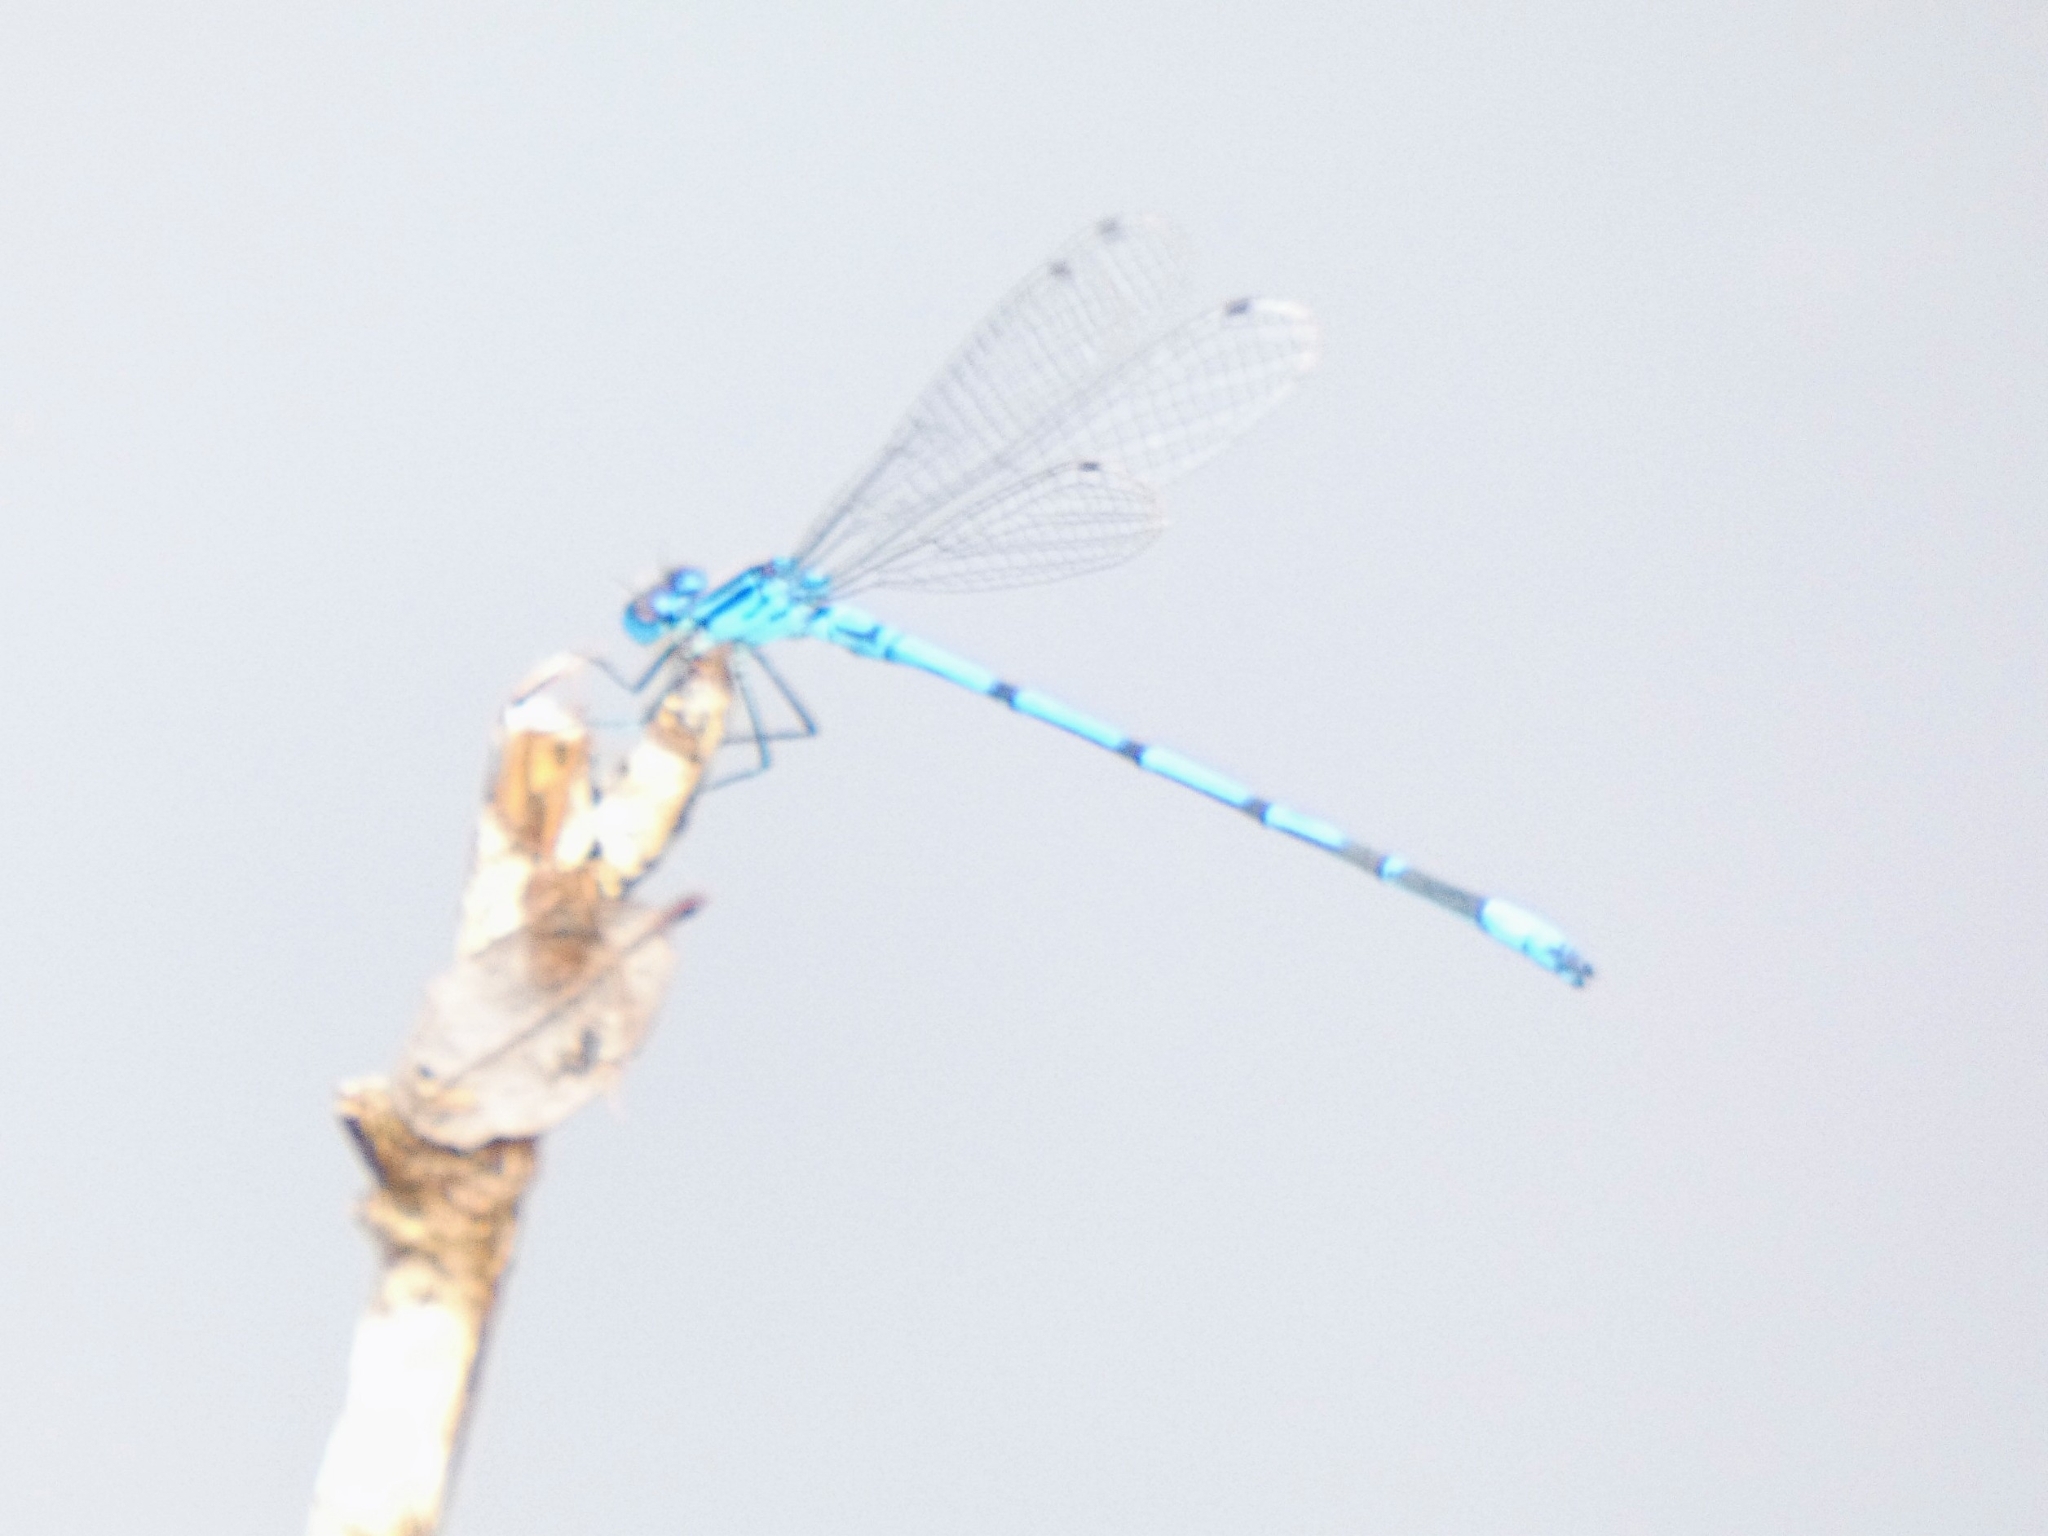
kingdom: Animalia
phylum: Arthropoda
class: Insecta
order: Odonata
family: Coenagrionidae
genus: Coenagrion
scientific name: Coenagrion puella
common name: Azure damselfly
